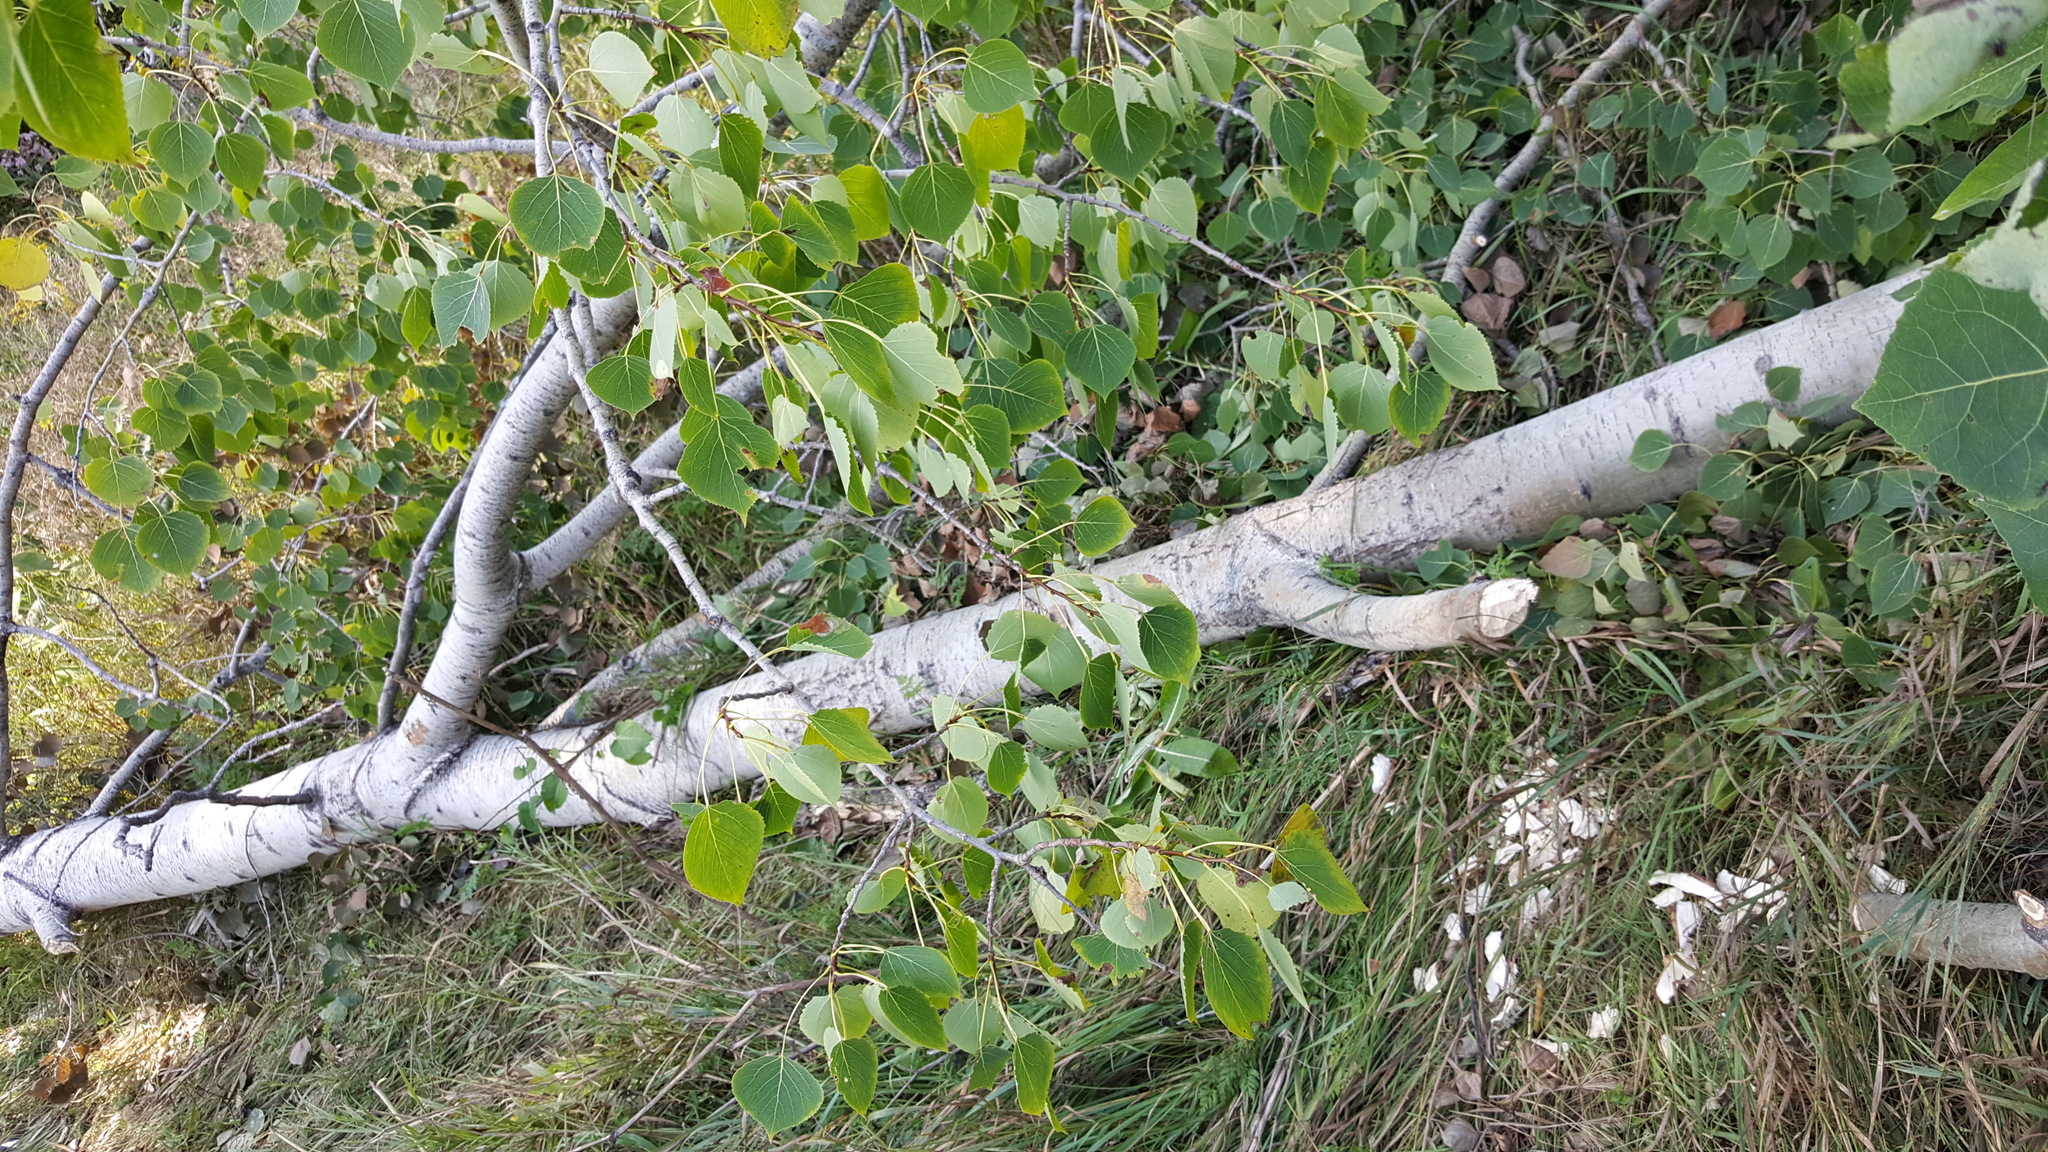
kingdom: Plantae
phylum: Tracheophyta
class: Magnoliopsida
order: Malpighiales
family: Salicaceae
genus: Populus
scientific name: Populus tremuloides
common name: Quaking aspen
